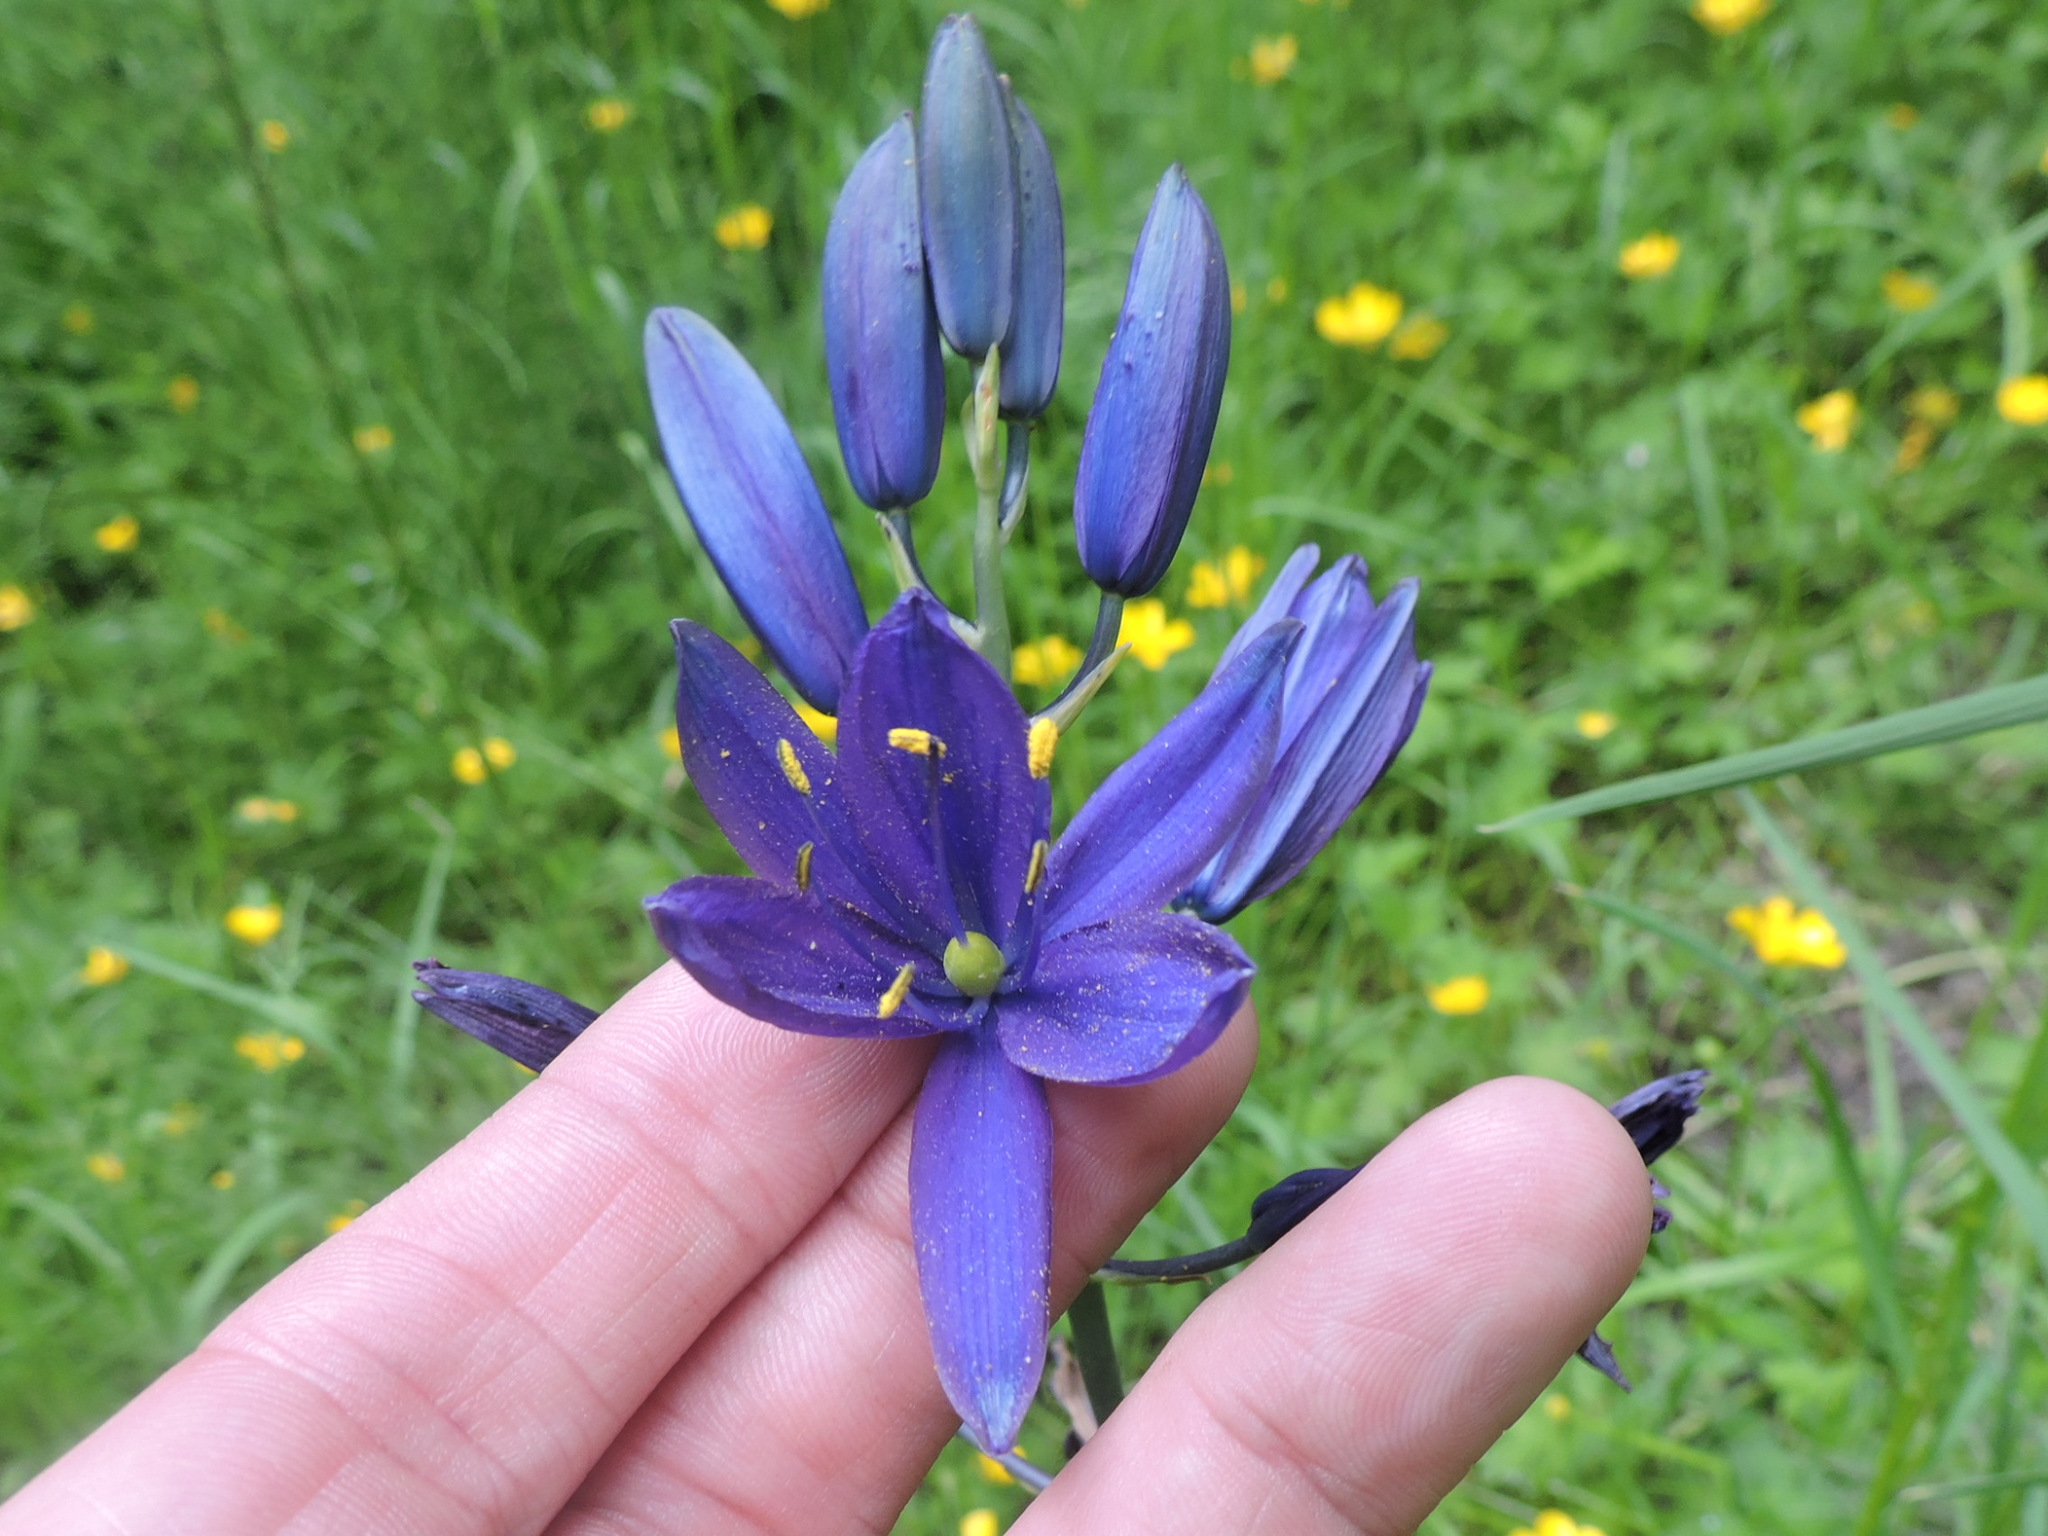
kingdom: Plantae
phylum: Tracheophyta
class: Liliopsida
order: Asparagales
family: Asparagaceae
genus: Camassia
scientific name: Camassia quamash
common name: Common camas
